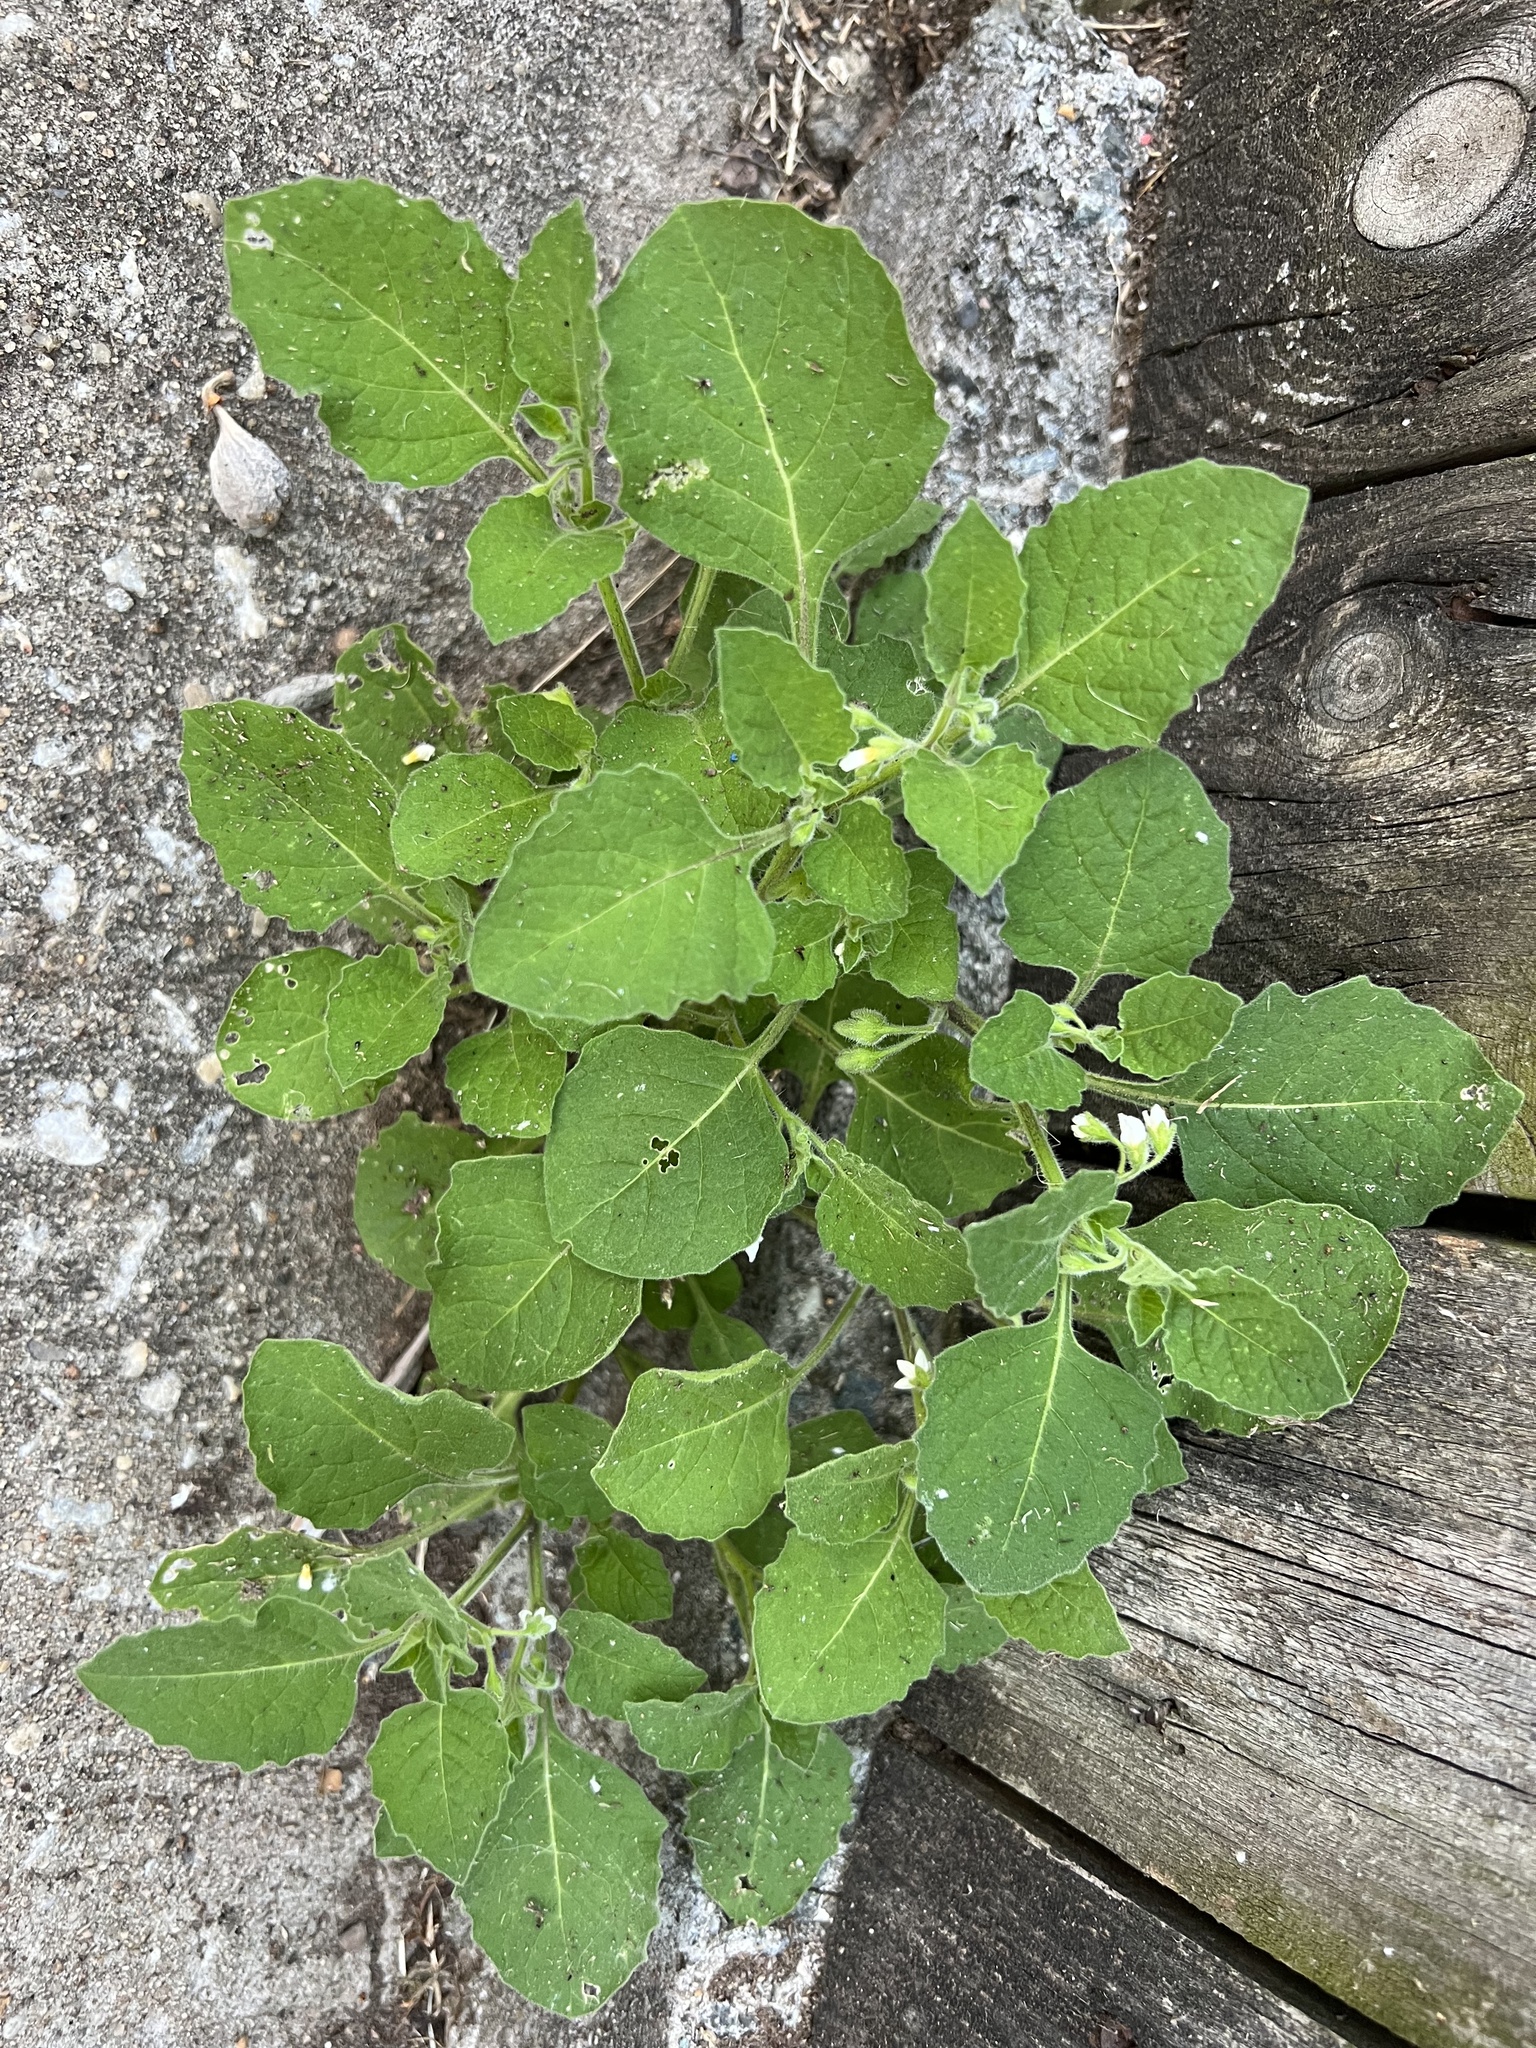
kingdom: Plantae
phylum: Tracheophyta
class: Magnoliopsida
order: Solanales
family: Solanaceae
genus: Solanum
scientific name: Solanum sarrachoides
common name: Leafy-fruited nightshade
